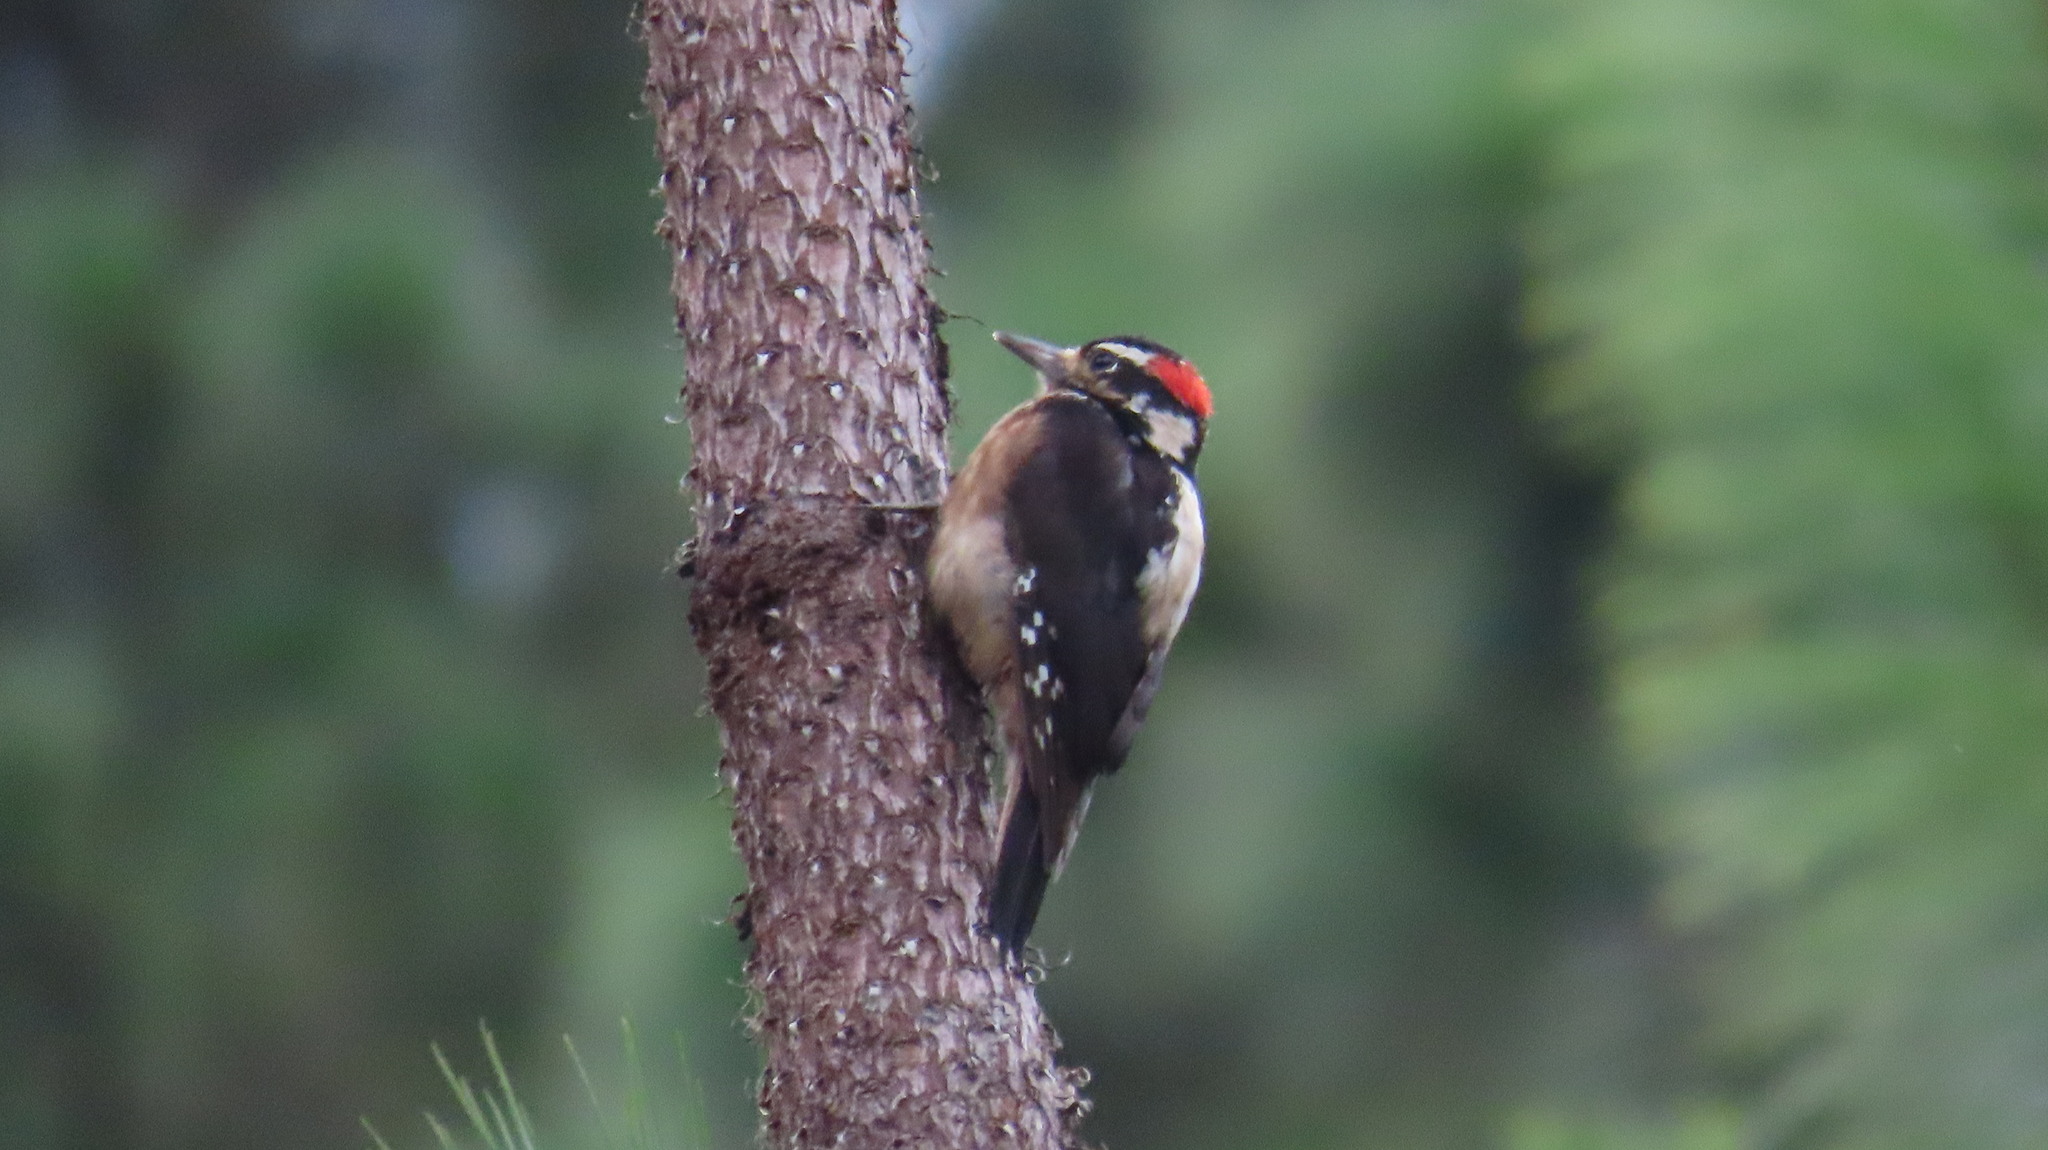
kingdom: Animalia
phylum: Chordata
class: Aves
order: Piciformes
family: Picidae
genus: Leuconotopicus
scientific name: Leuconotopicus villosus
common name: Hairy woodpecker
